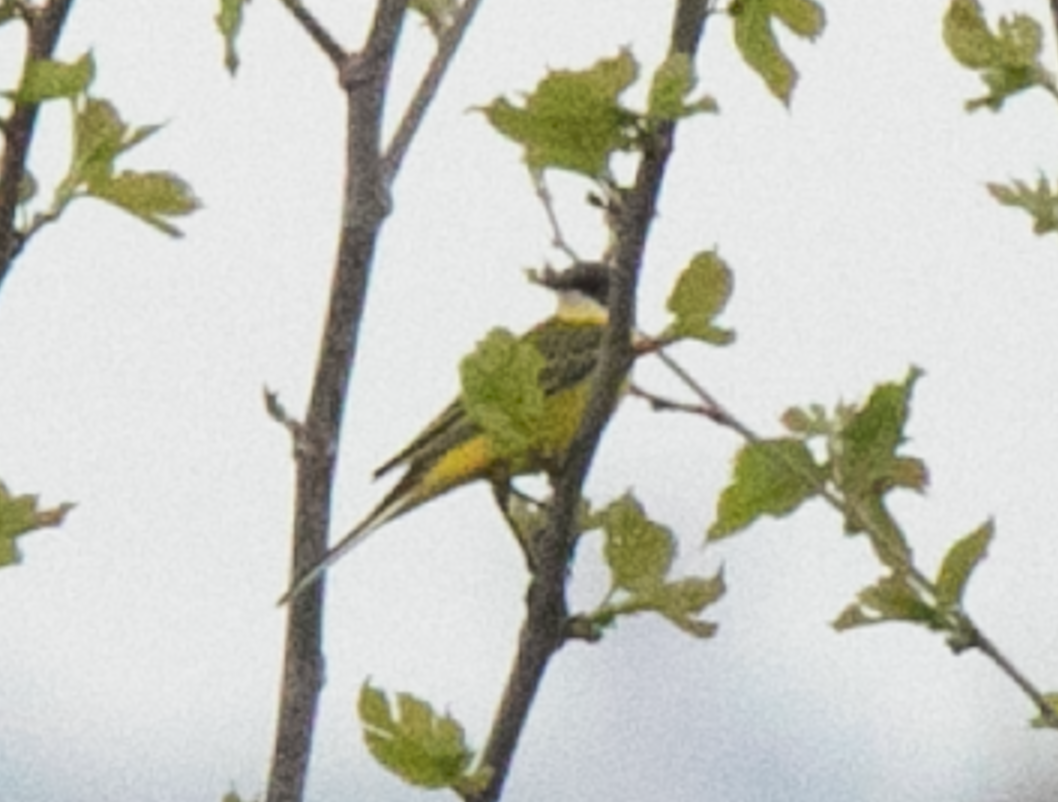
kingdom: Animalia
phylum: Chordata
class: Aves
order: Passeriformes
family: Motacillidae
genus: Motacilla
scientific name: Motacilla flava
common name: Western yellow wagtail
